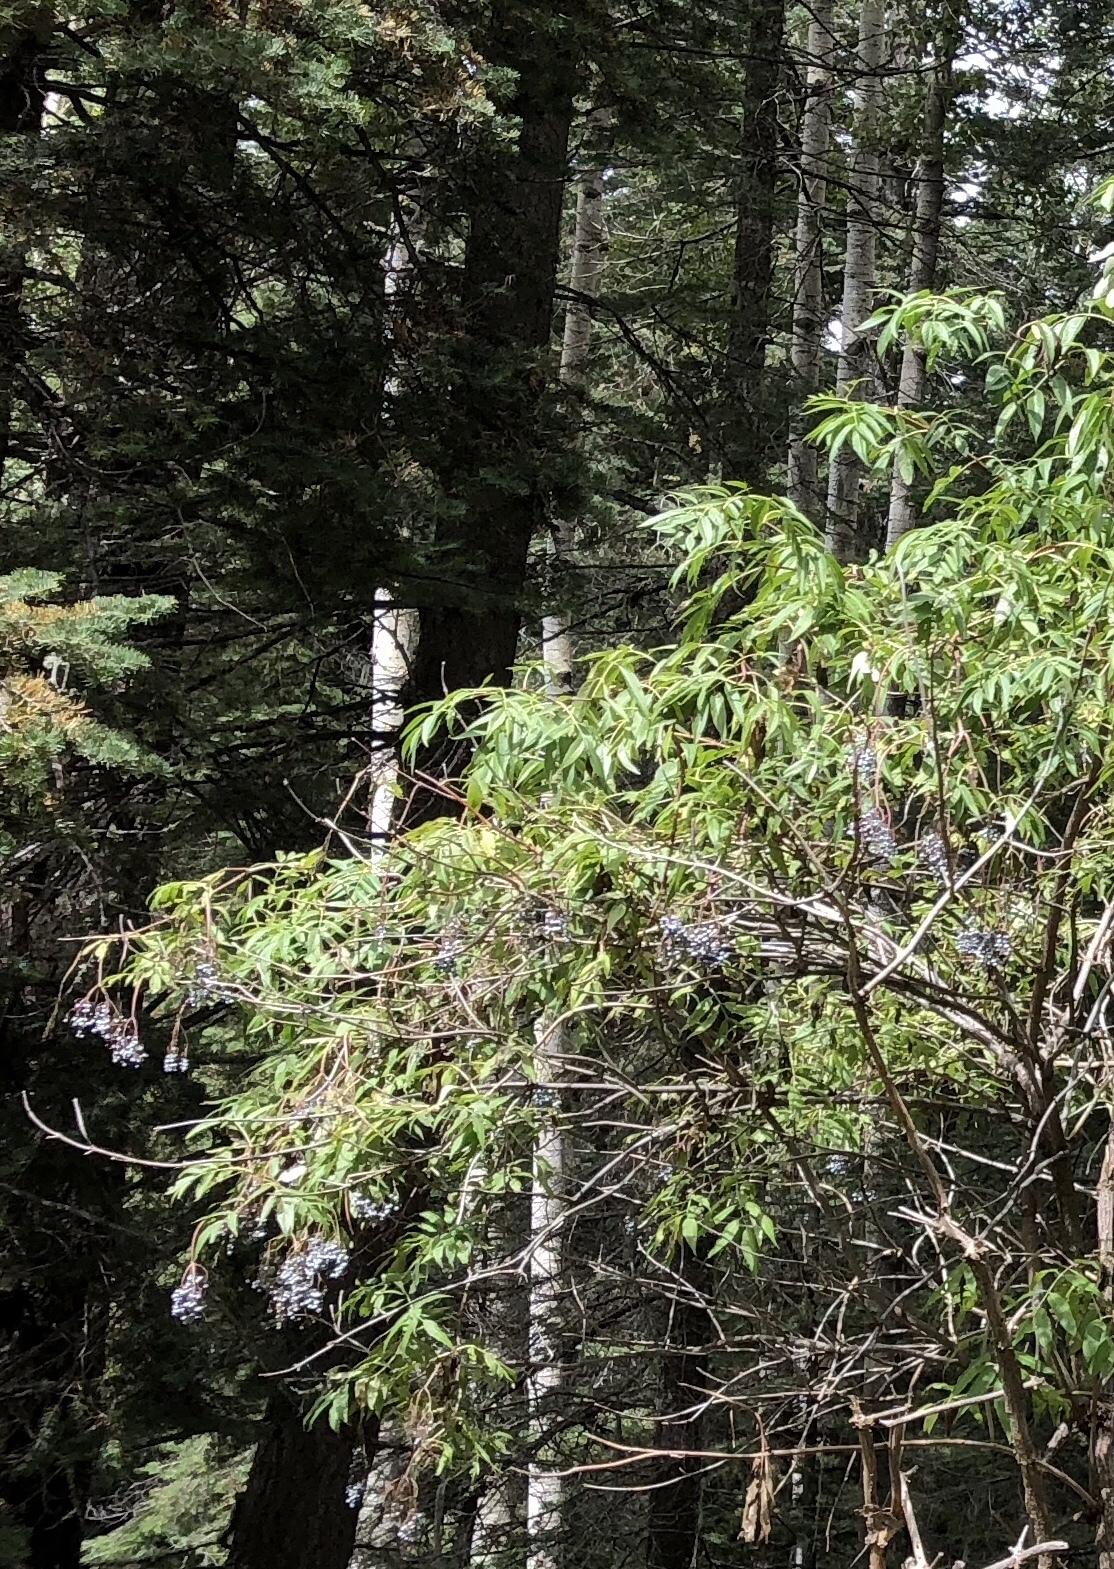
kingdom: Plantae
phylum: Tracheophyta
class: Magnoliopsida
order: Dipsacales
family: Viburnaceae
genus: Sambucus
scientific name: Sambucus cerulea
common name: Blue elder
